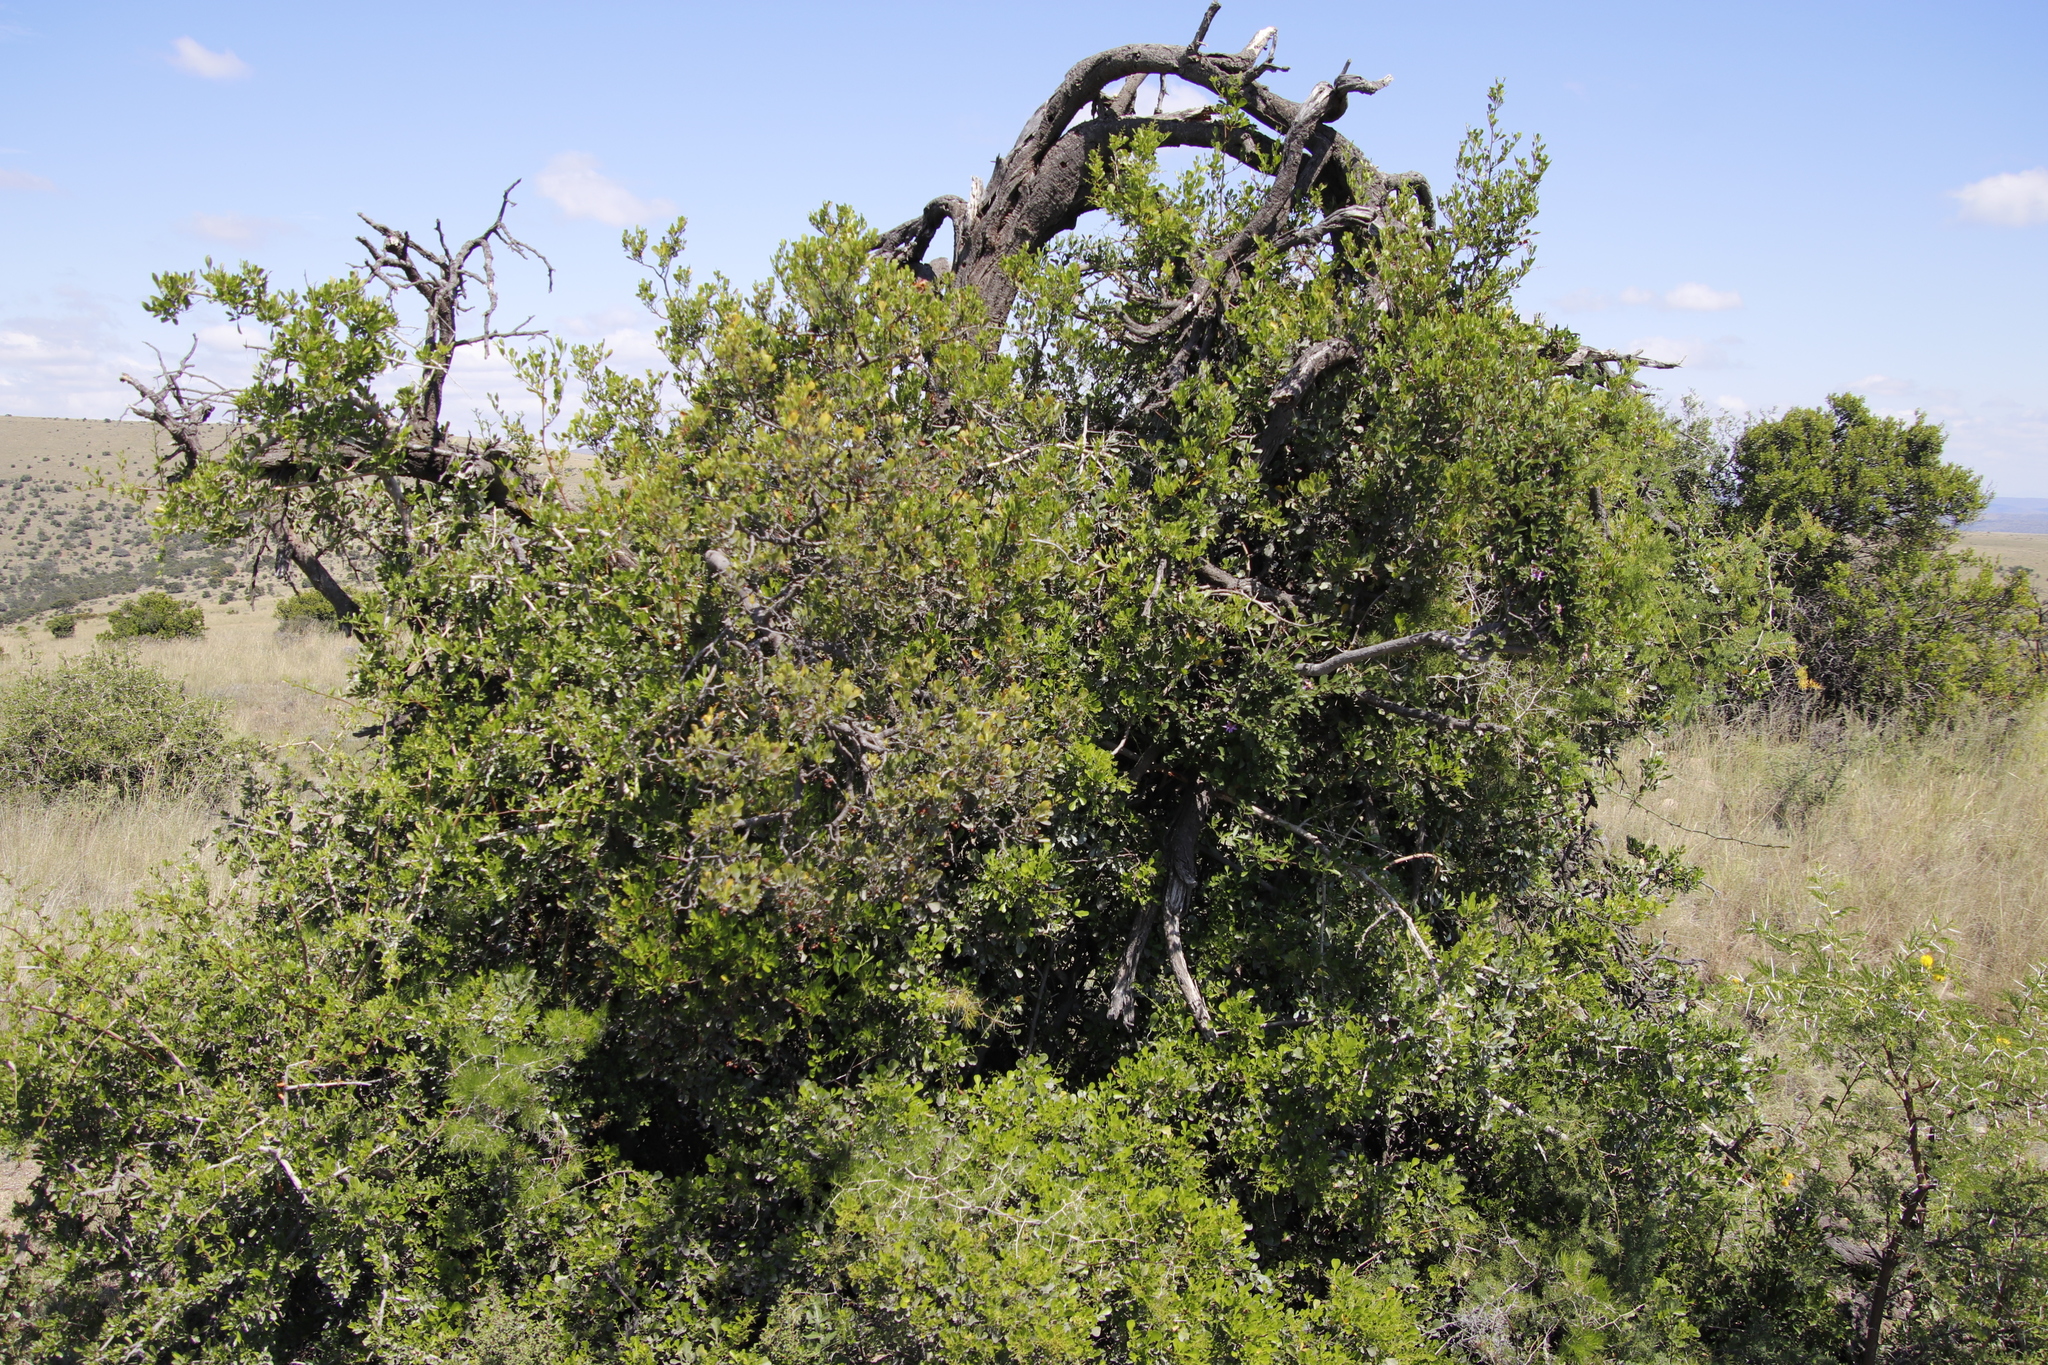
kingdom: Plantae
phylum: Tracheophyta
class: Liliopsida
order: Asparagales
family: Asparagaceae
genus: Asparagus
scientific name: Asparagus retrofractus
